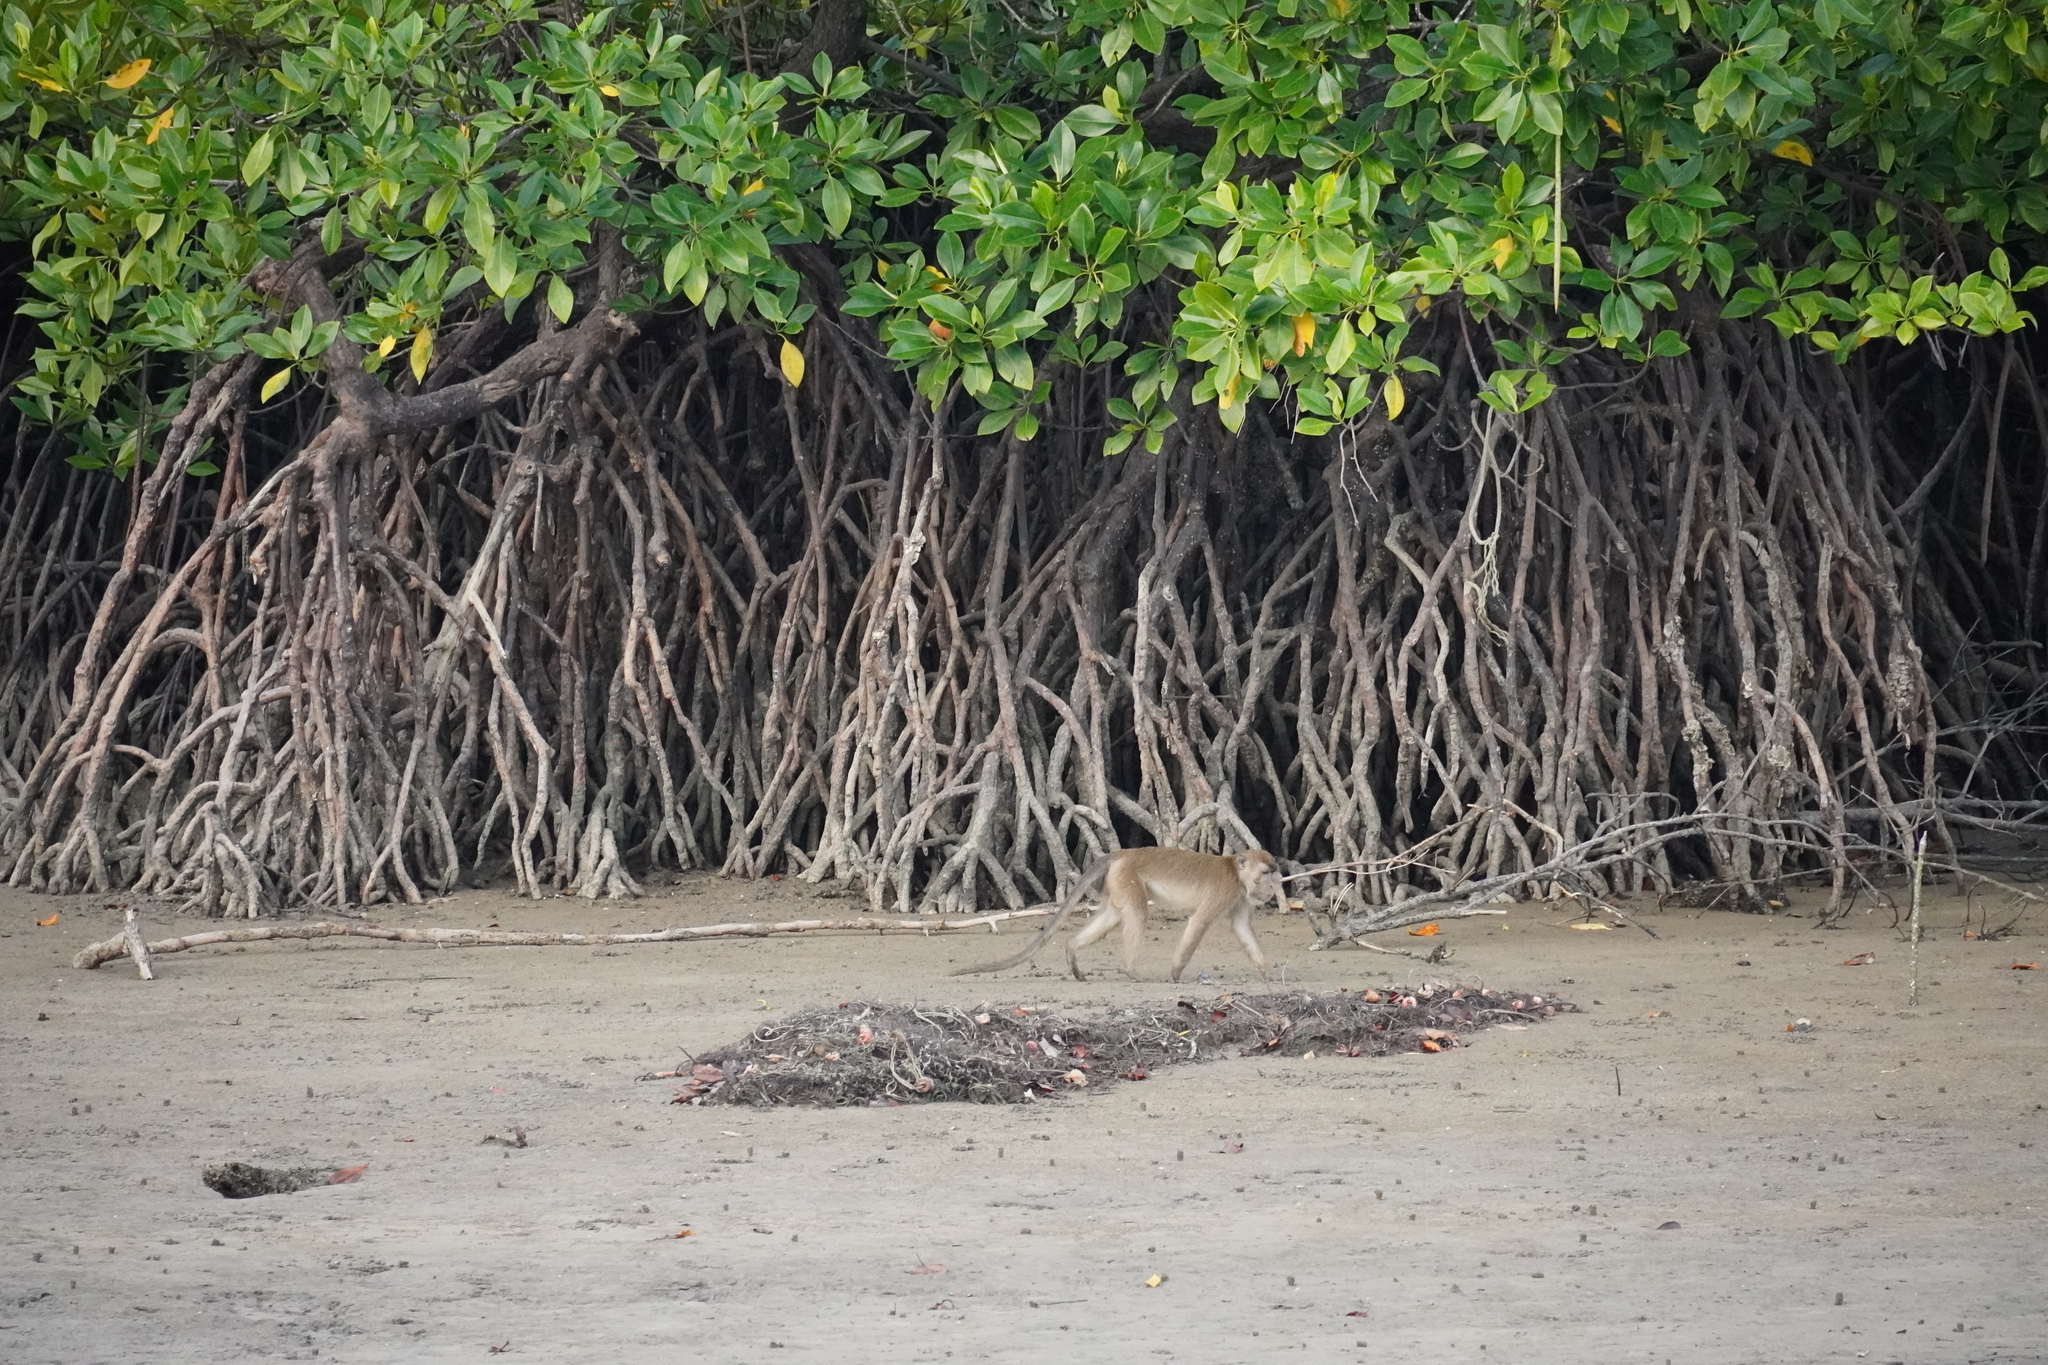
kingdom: Animalia
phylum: Chordata
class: Mammalia
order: Primates
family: Cercopithecidae
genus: Macaca
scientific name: Macaca fascicularis
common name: Crab-eating macaque
